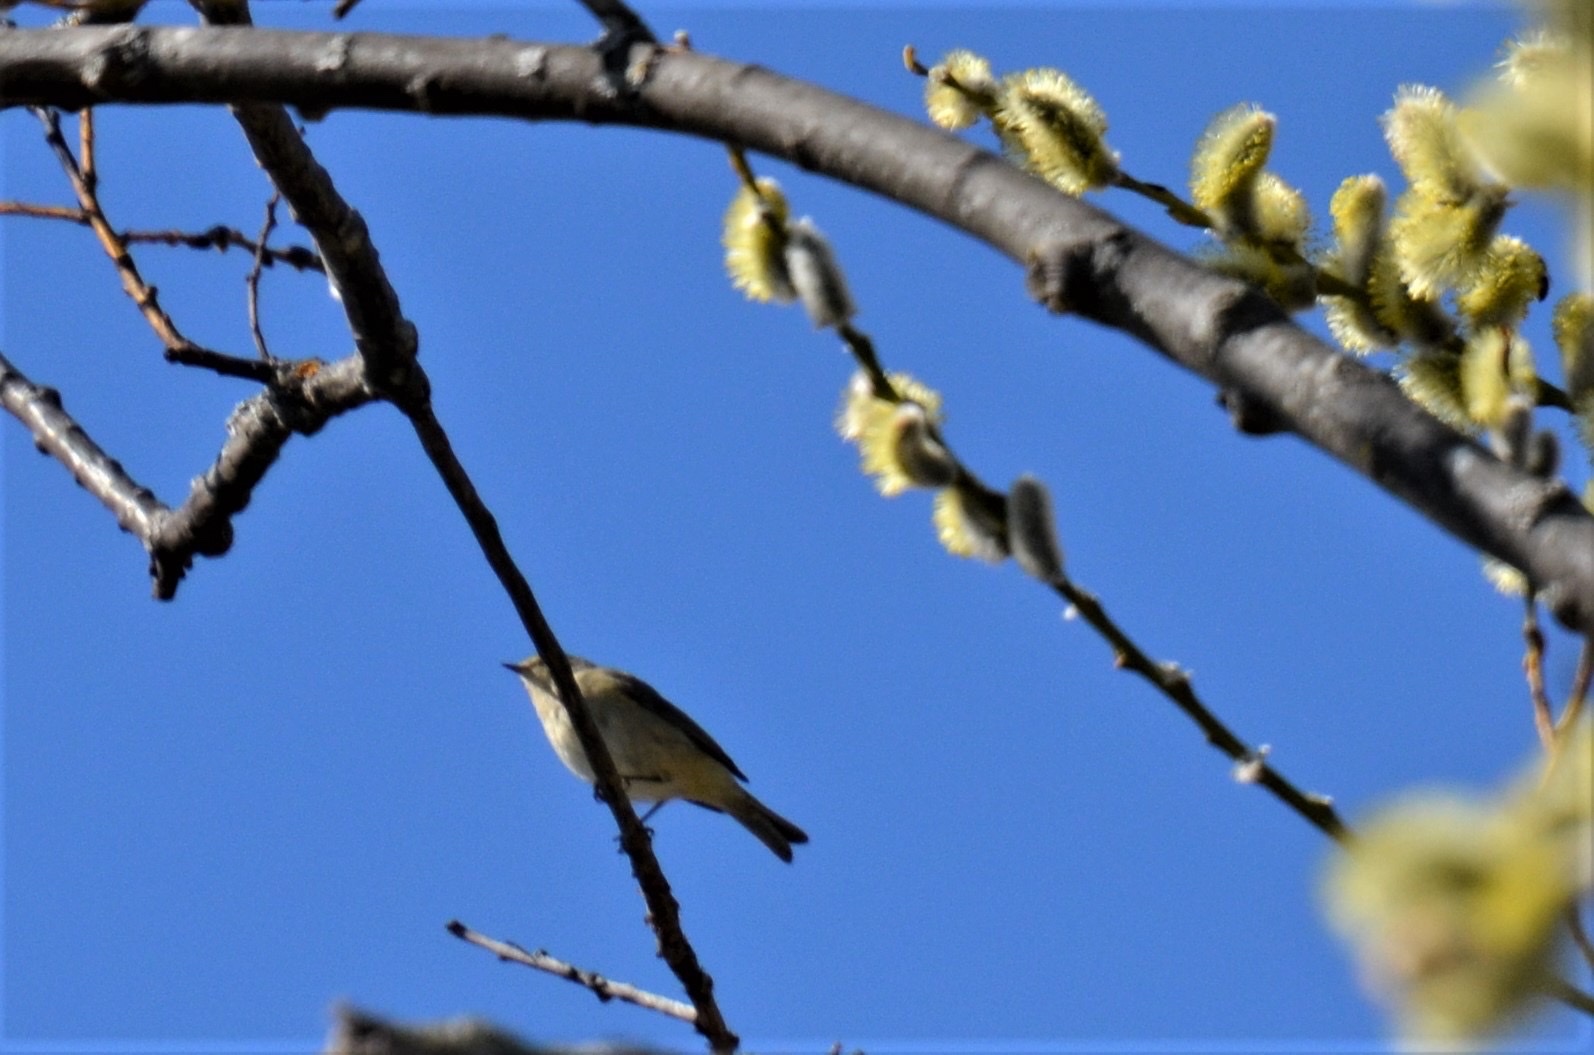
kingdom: Animalia
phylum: Chordata
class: Aves
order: Passeriformes
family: Phylloscopidae
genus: Phylloscopus
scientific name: Phylloscopus collybita
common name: Common chiffchaff
